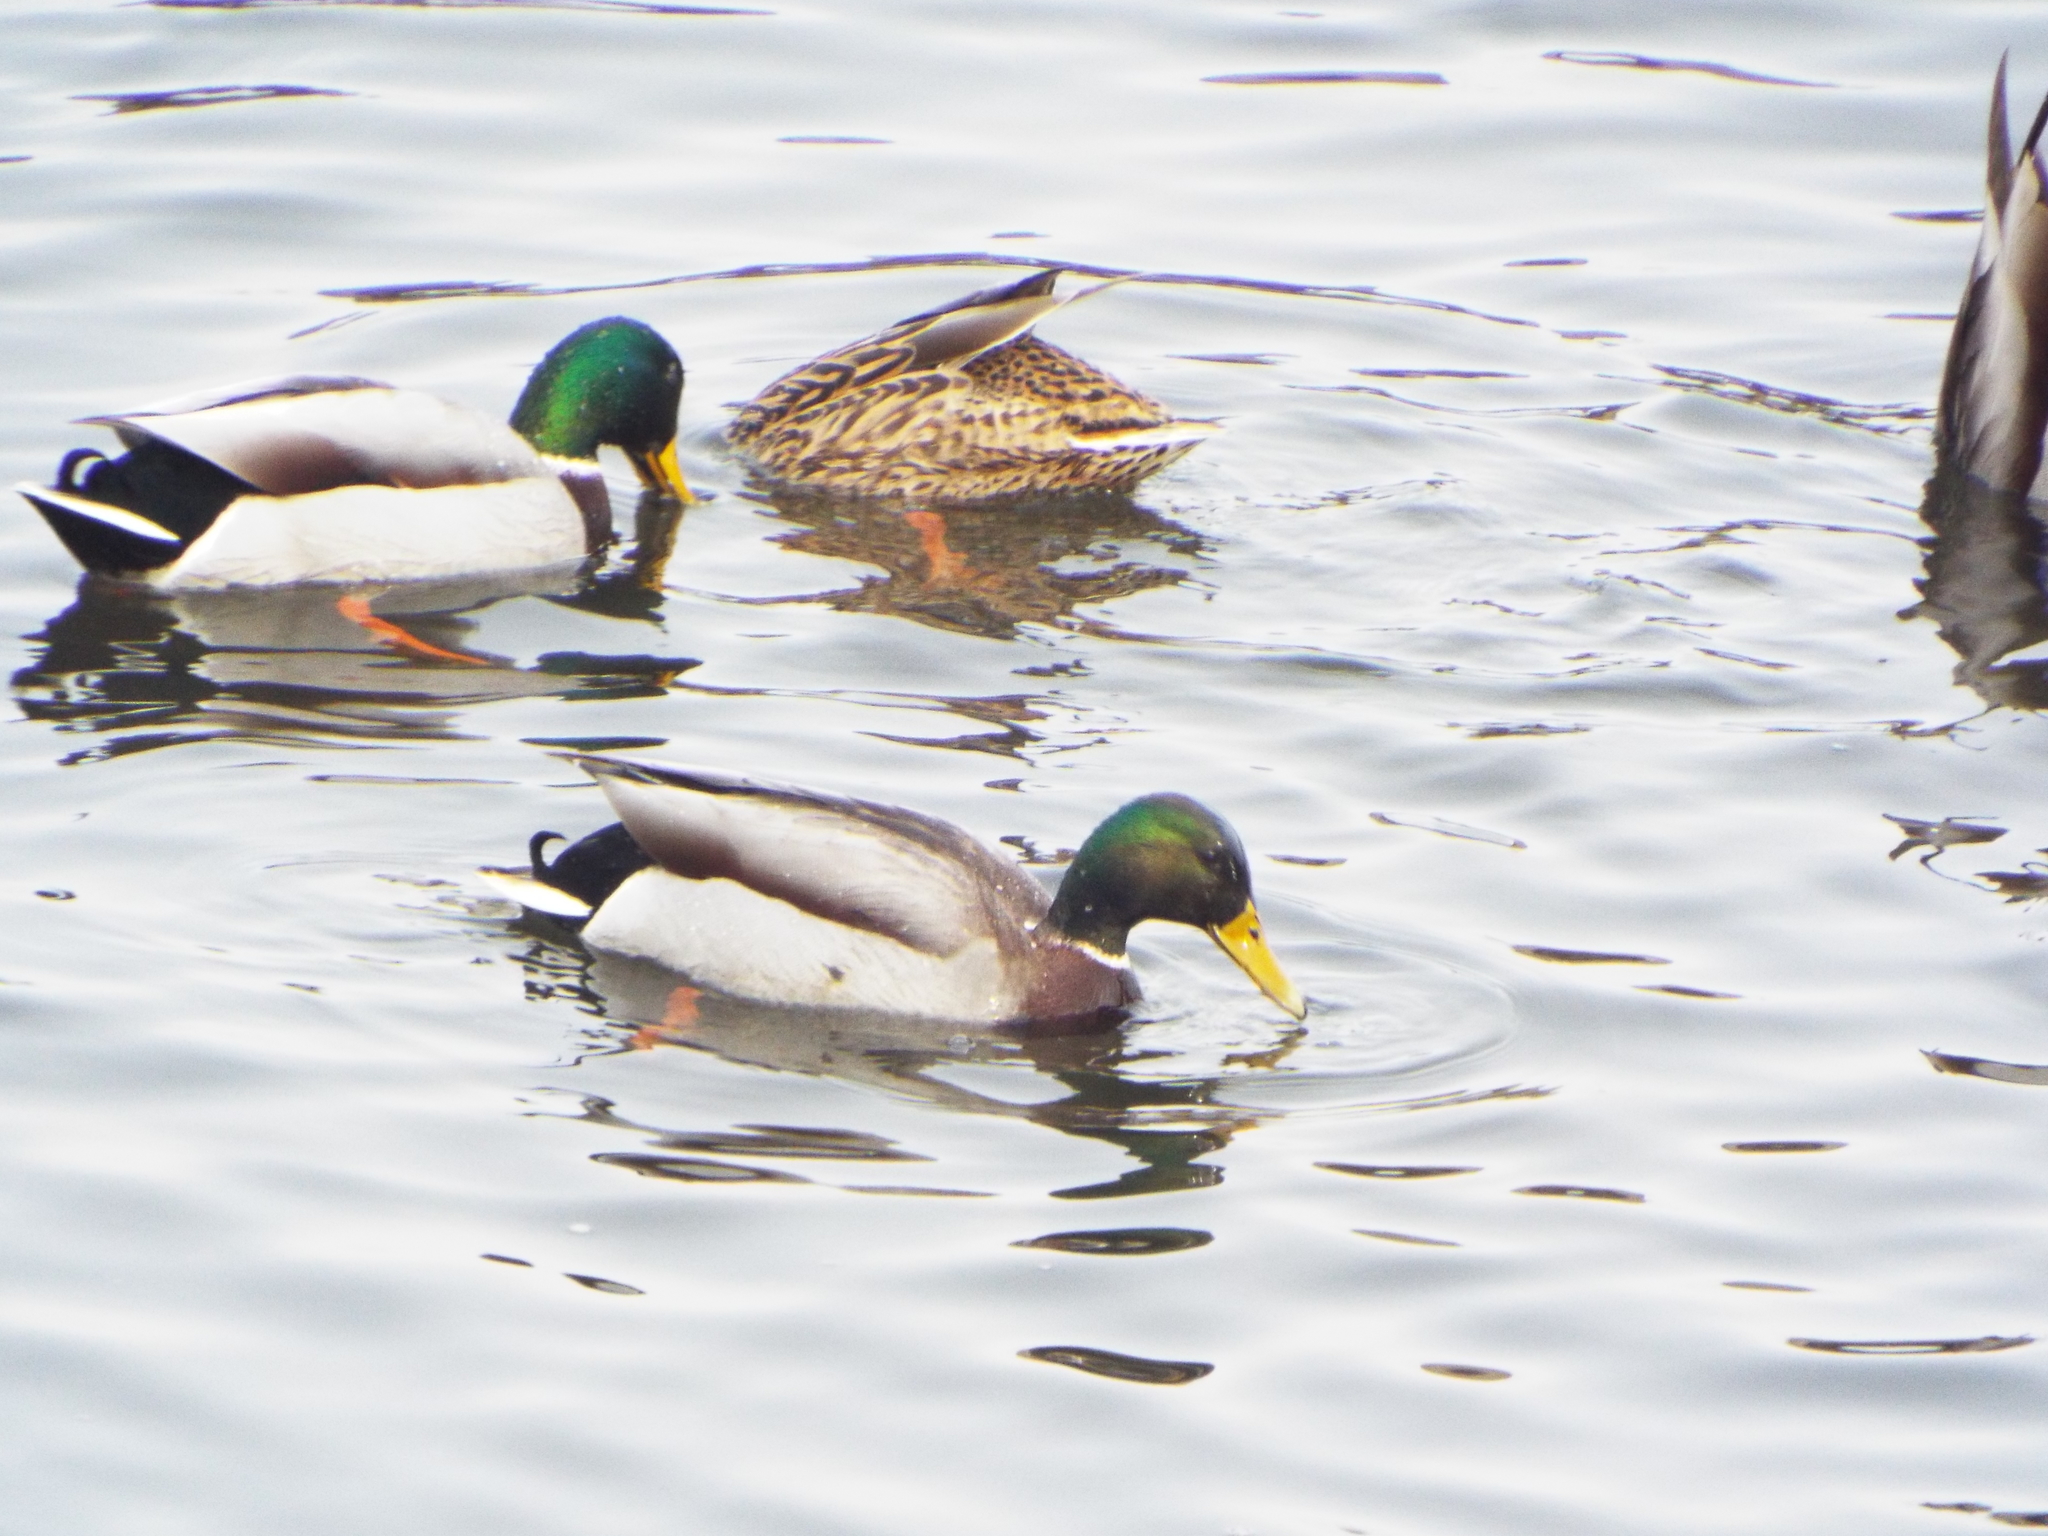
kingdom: Animalia
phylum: Chordata
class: Aves
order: Anseriformes
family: Anatidae
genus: Anas
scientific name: Anas platyrhynchos
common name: Mallard
